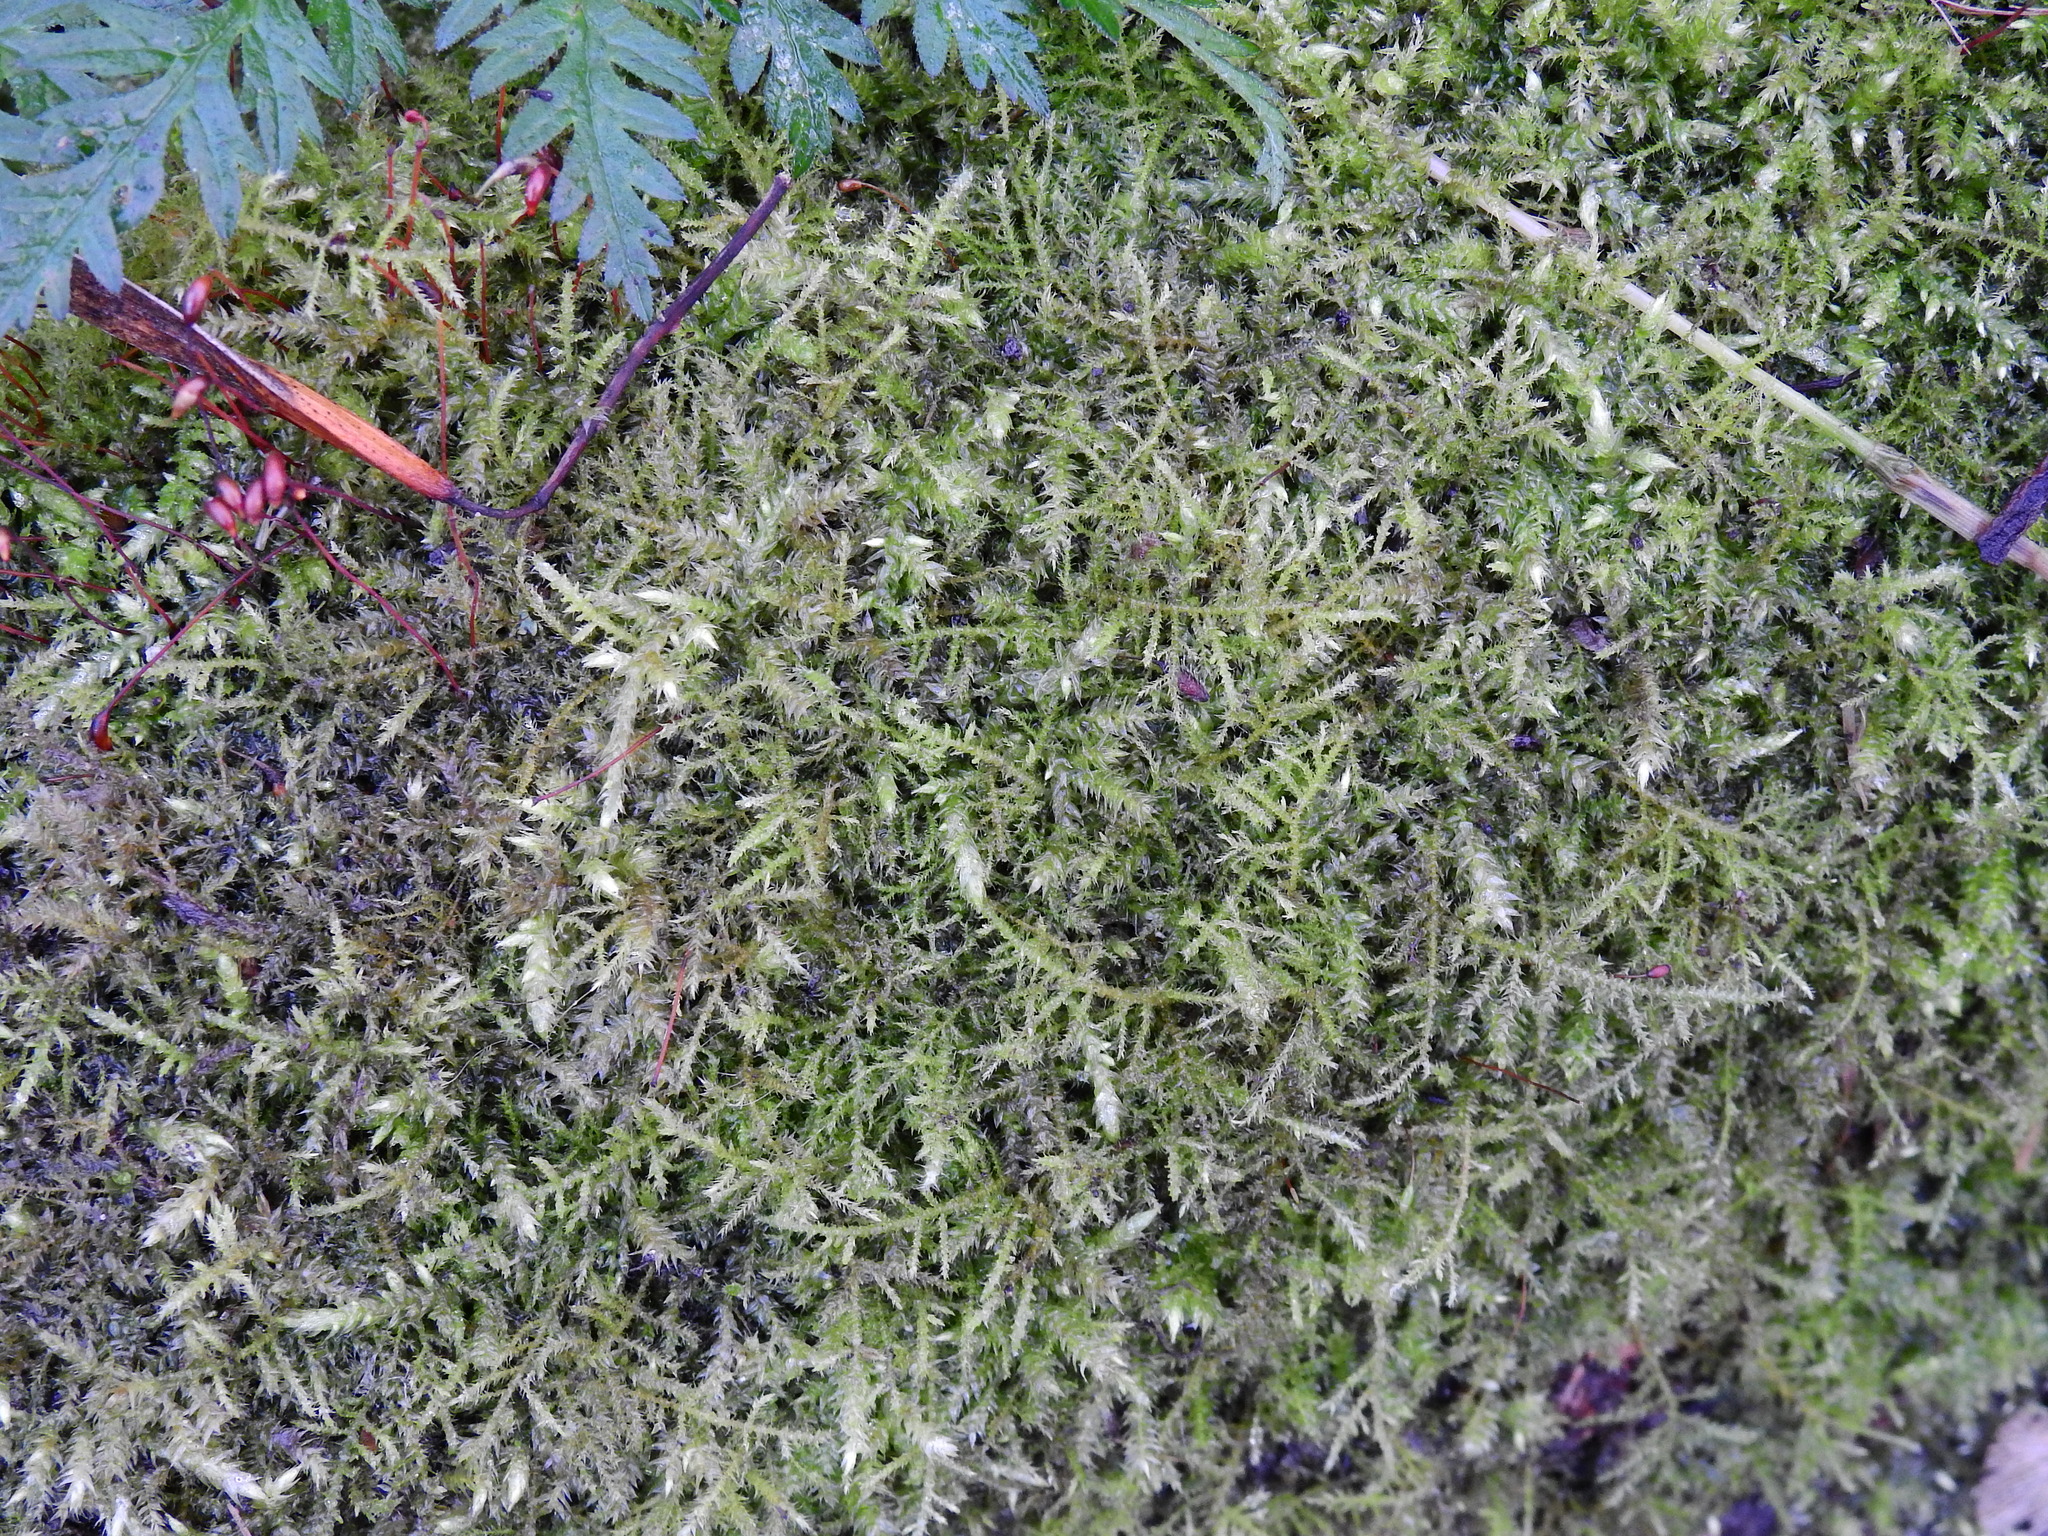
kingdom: Plantae
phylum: Bryophyta
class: Bryopsida
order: Hypnales
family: Brachytheciaceae
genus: Kindbergia
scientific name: Kindbergia praelonga
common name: Slender beaked moss
